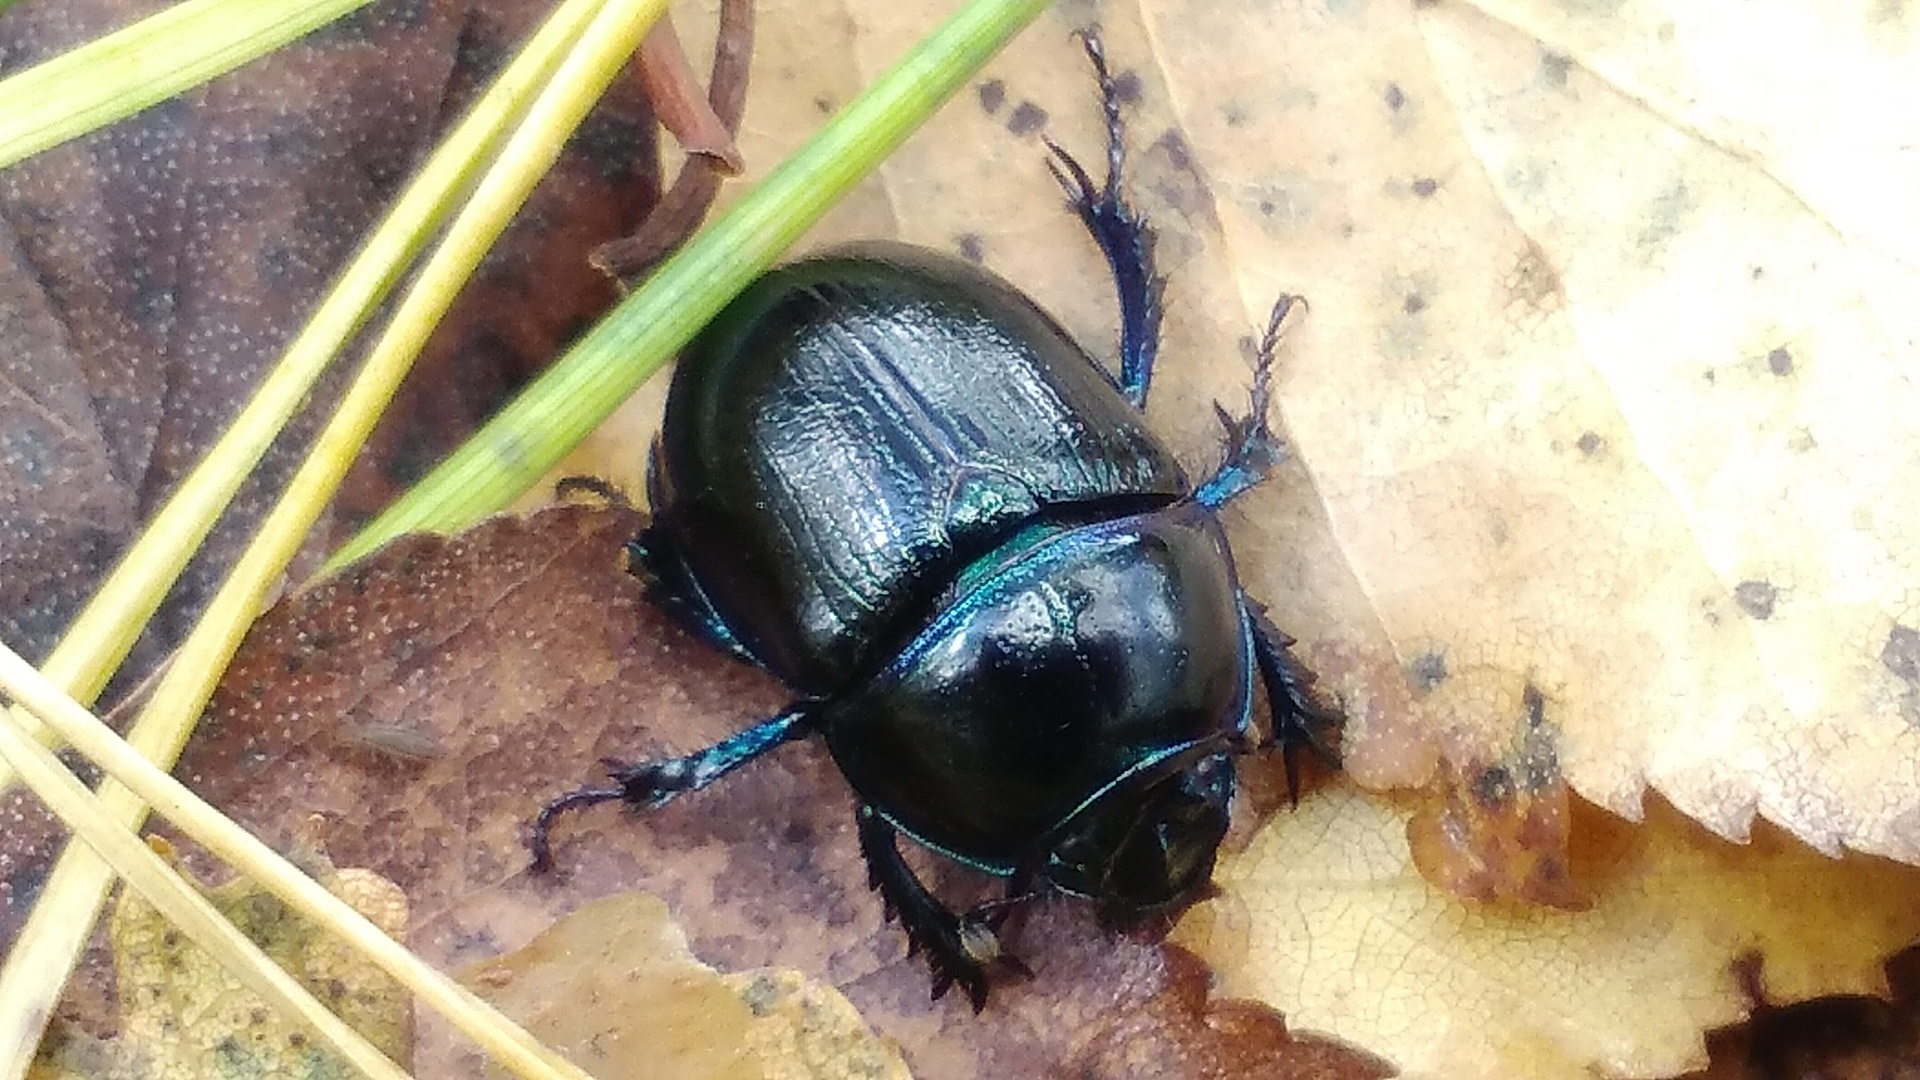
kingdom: Animalia
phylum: Arthropoda
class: Insecta
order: Coleoptera
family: Geotrupidae
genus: Anoplotrupes
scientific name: Anoplotrupes stercorosus
